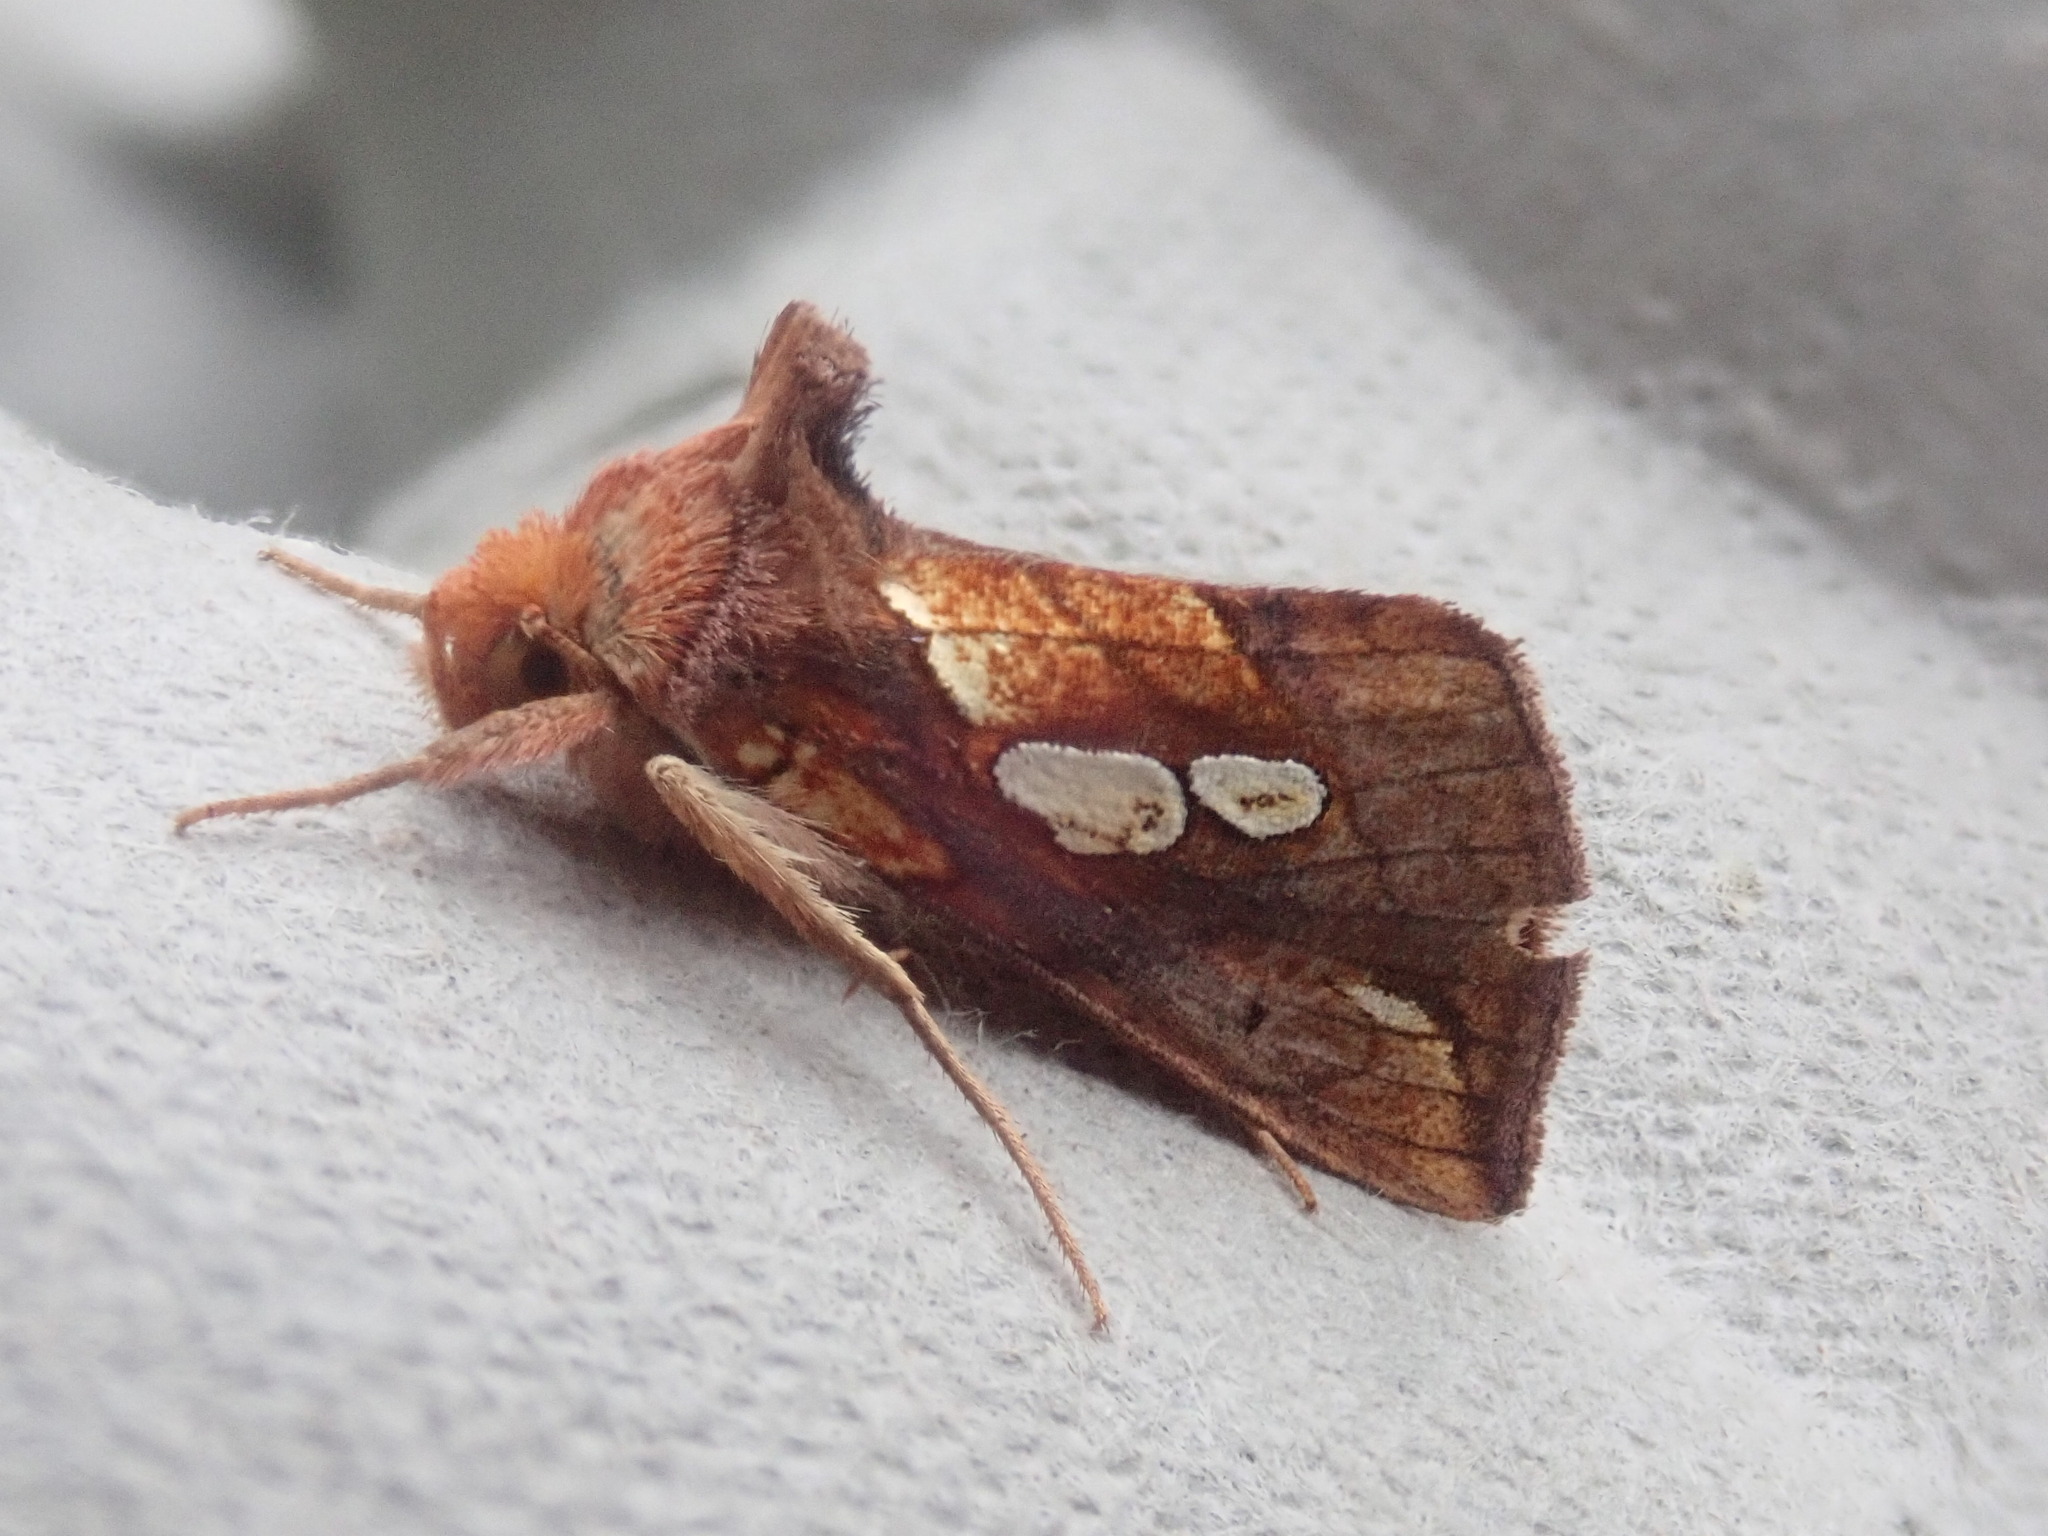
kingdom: Animalia
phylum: Arthropoda
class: Insecta
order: Lepidoptera
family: Noctuidae
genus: Plusia
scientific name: Plusia magnimacula
